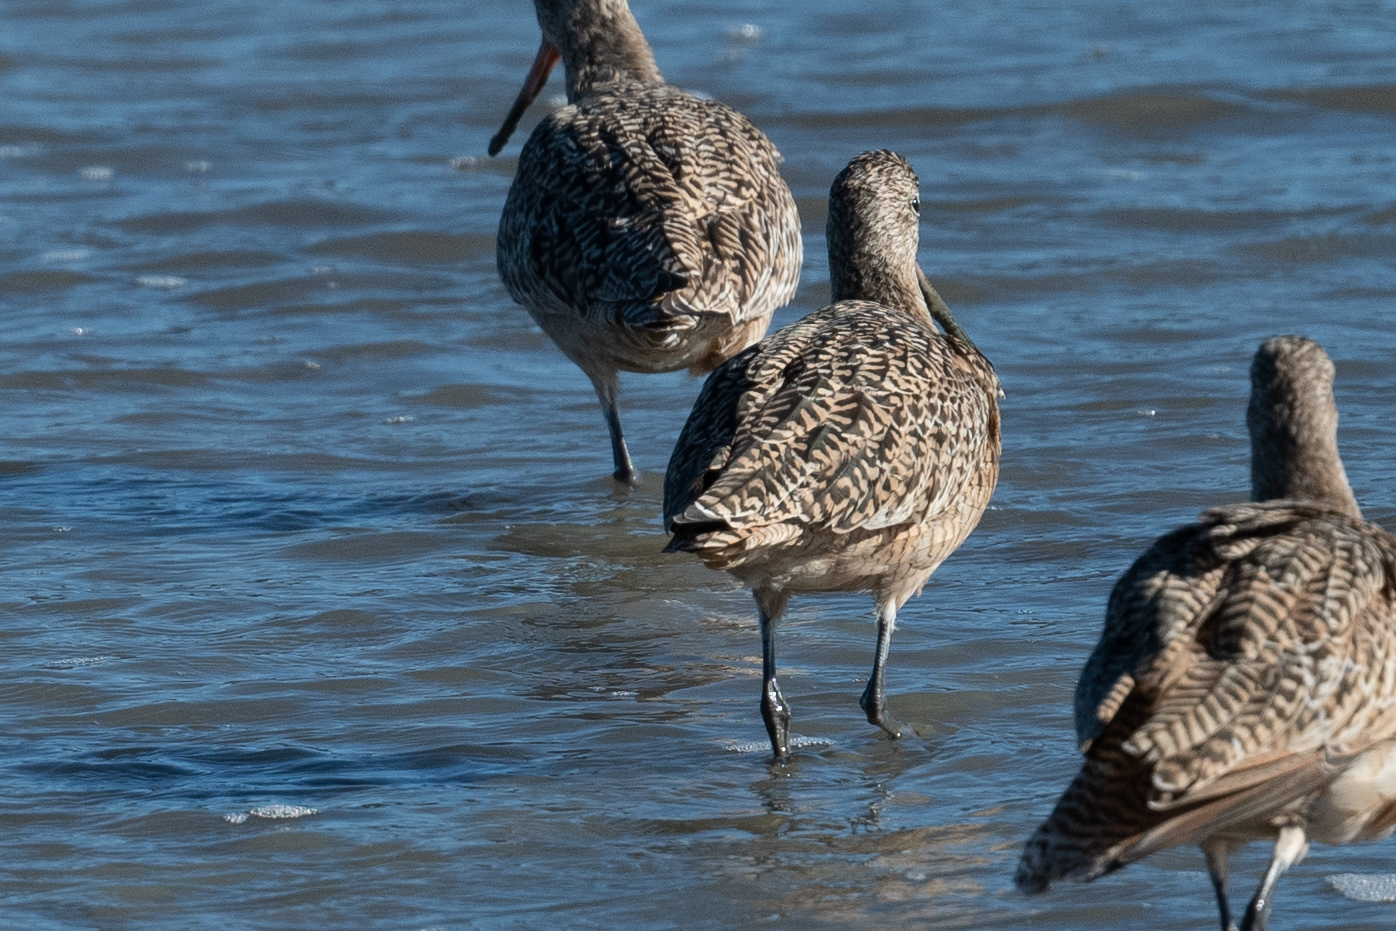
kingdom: Animalia
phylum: Chordata
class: Aves
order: Charadriiformes
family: Scolopacidae
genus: Limosa
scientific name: Limosa fedoa
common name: Marbled godwit
